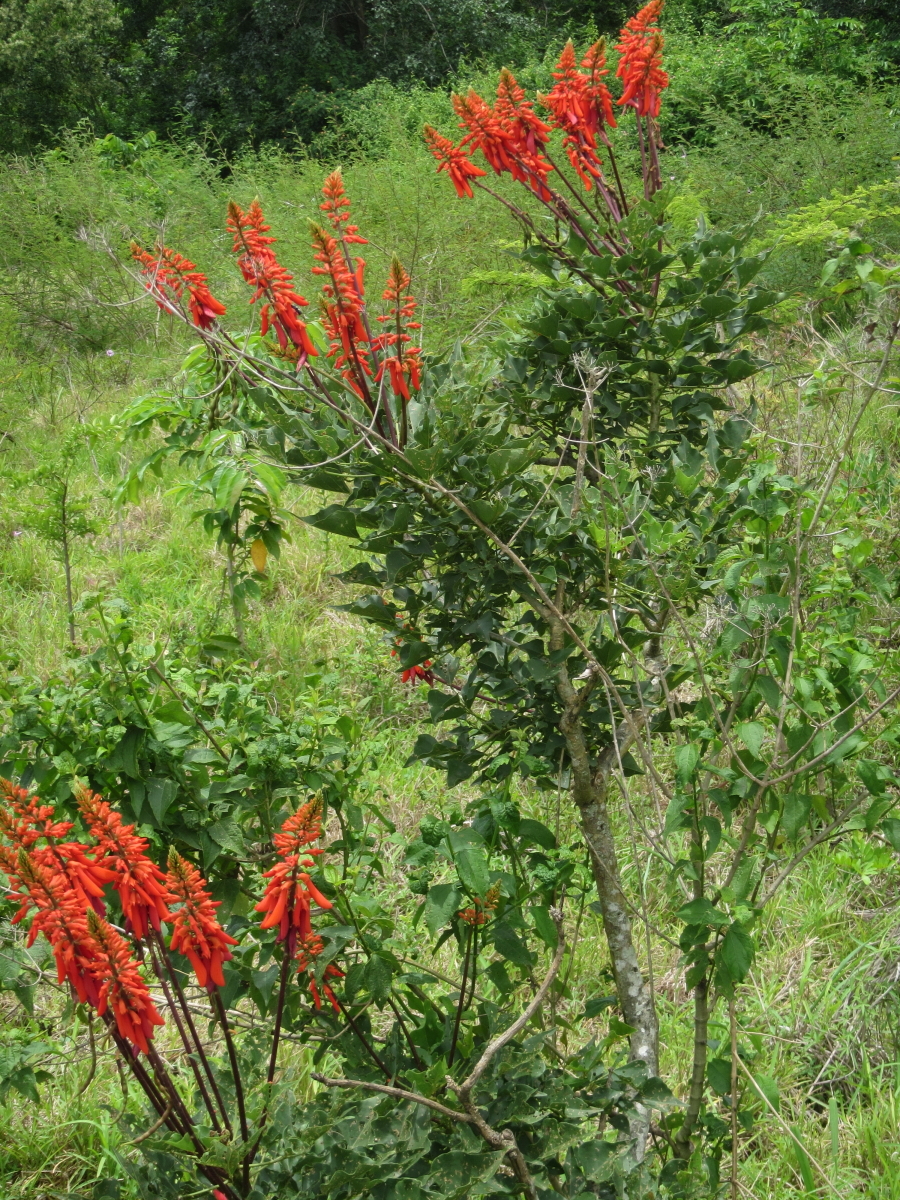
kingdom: Plantae
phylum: Tracheophyta
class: Magnoliopsida
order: Fabales
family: Fabaceae
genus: Erythrina
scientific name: Erythrina humeana
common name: Dwarf coral tree
